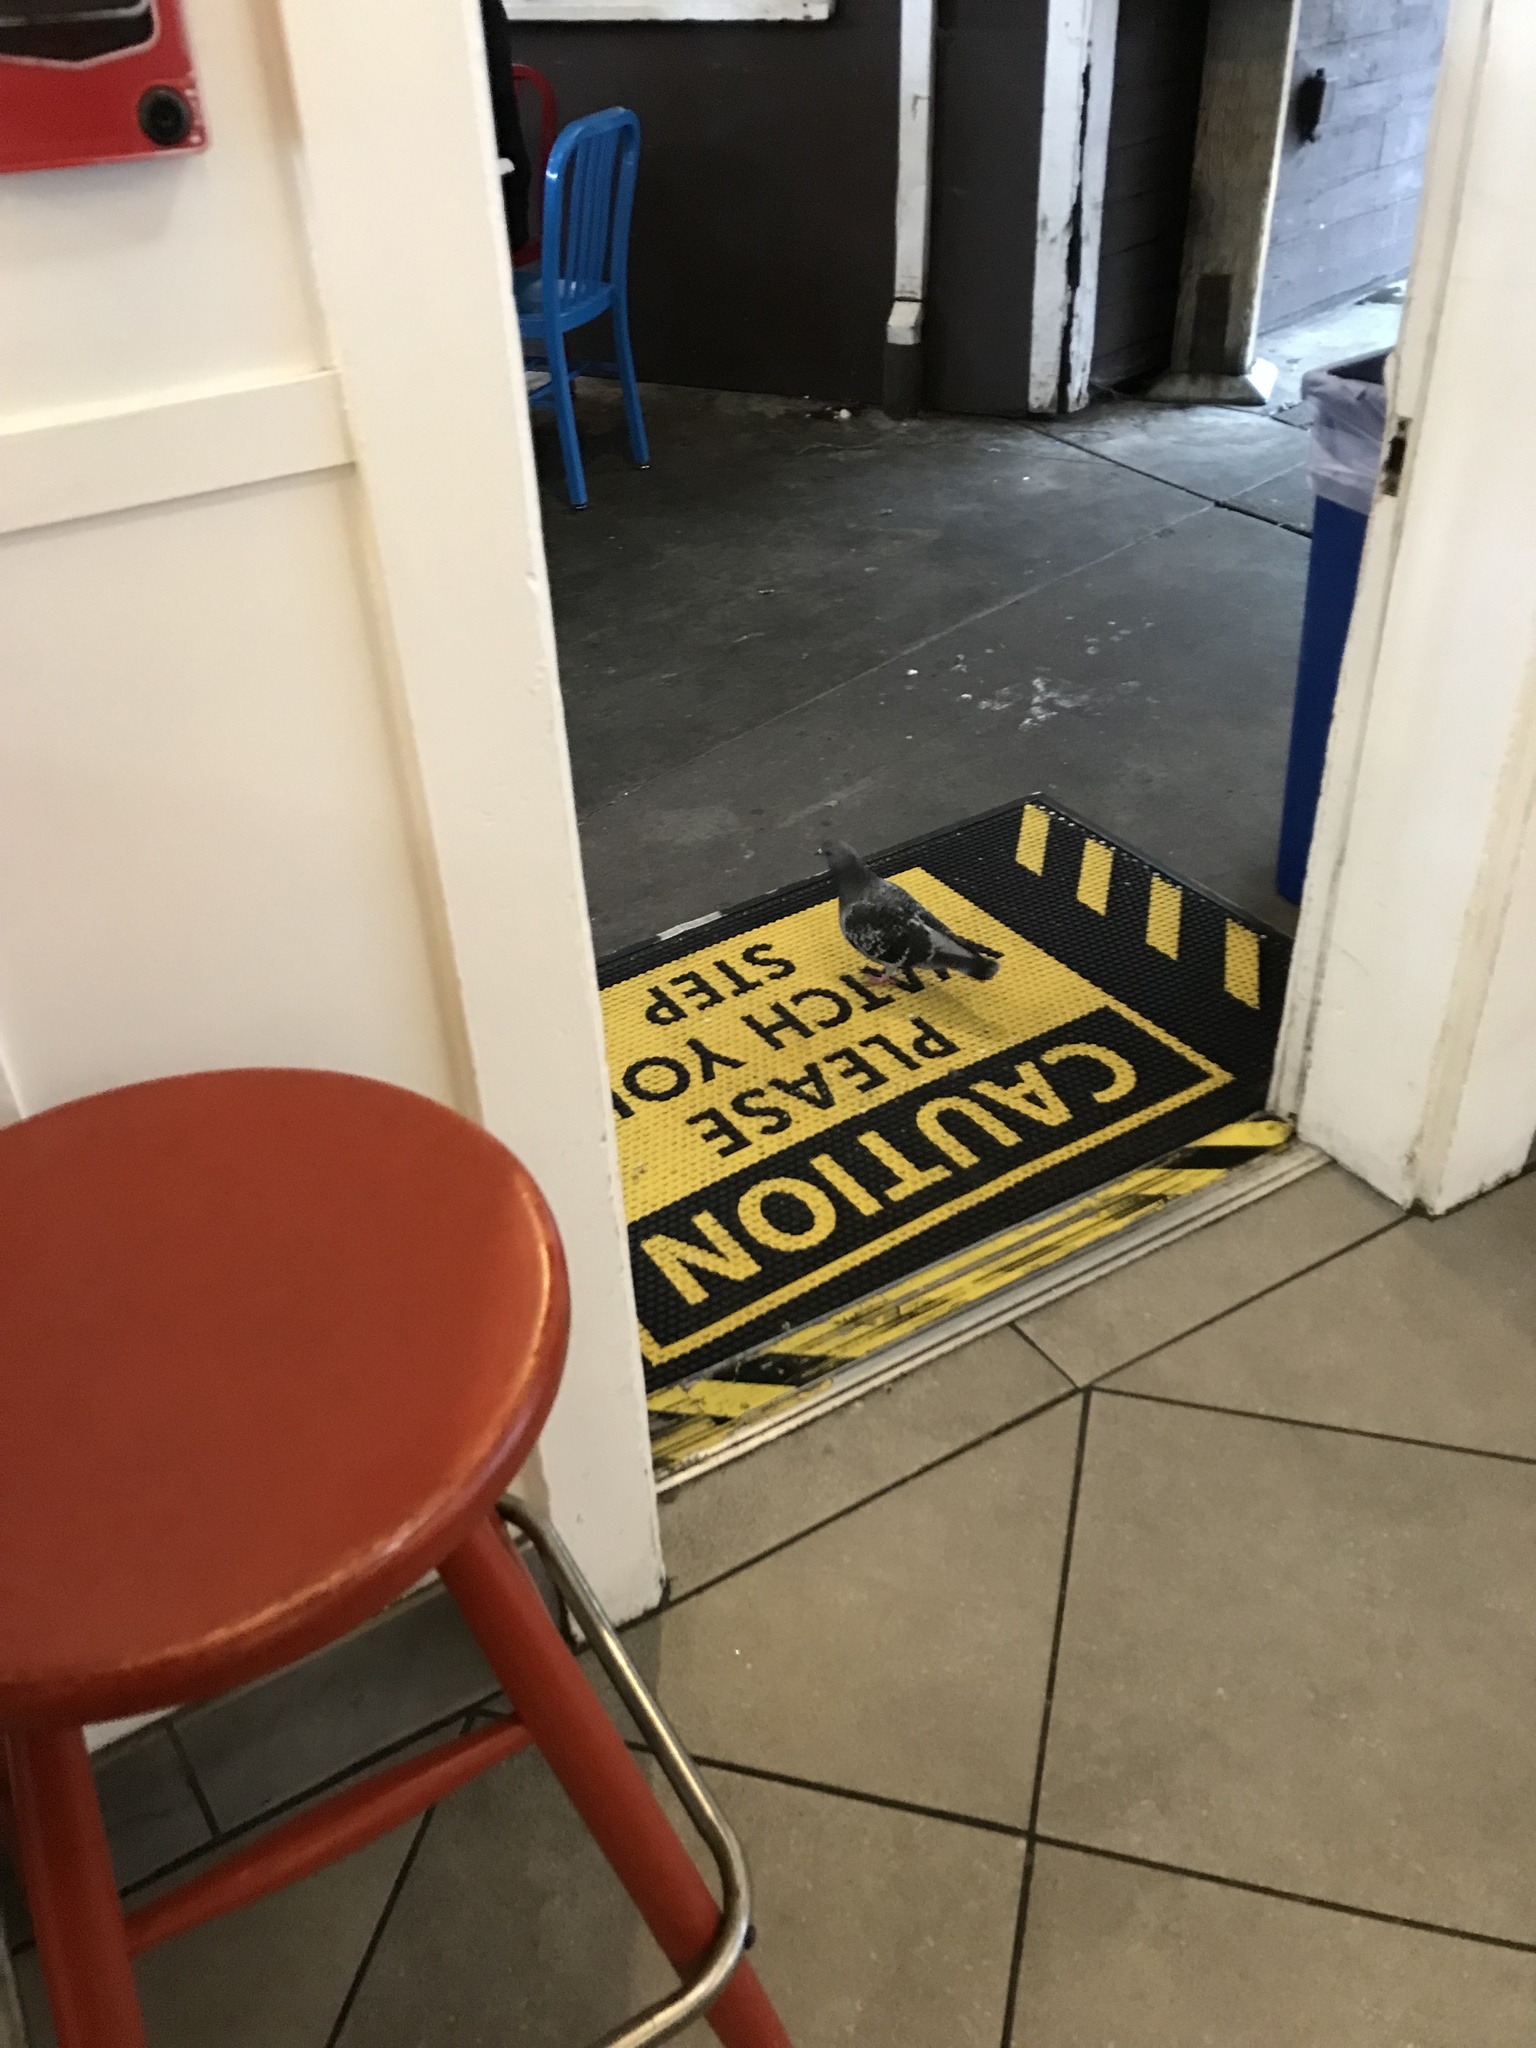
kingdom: Animalia
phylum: Chordata
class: Aves
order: Columbiformes
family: Columbidae
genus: Columba
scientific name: Columba livia
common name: Rock pigeon
